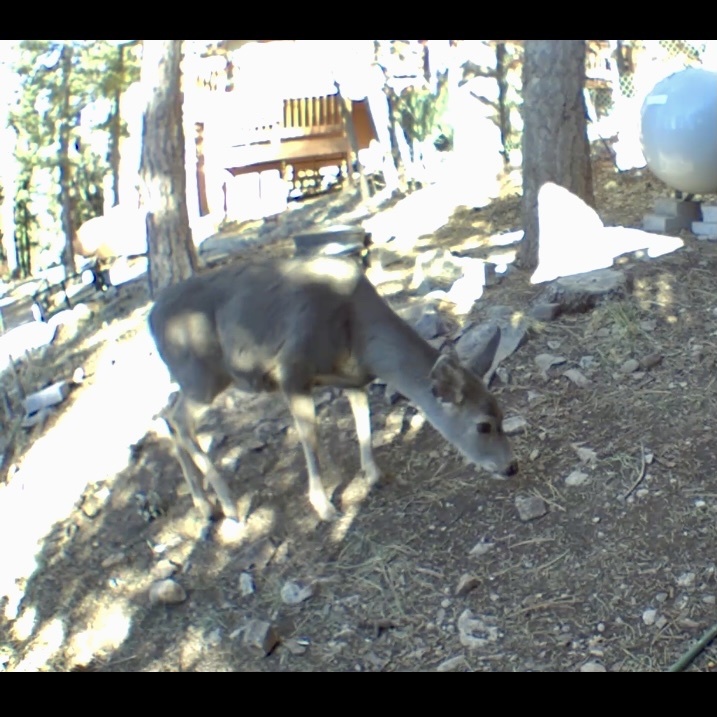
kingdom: Animalia
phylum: Chordata
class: Mammalia
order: Artiodactyla
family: Cervidae
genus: Odocoileus
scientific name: Odocoileus hemionus
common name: Mule deer
